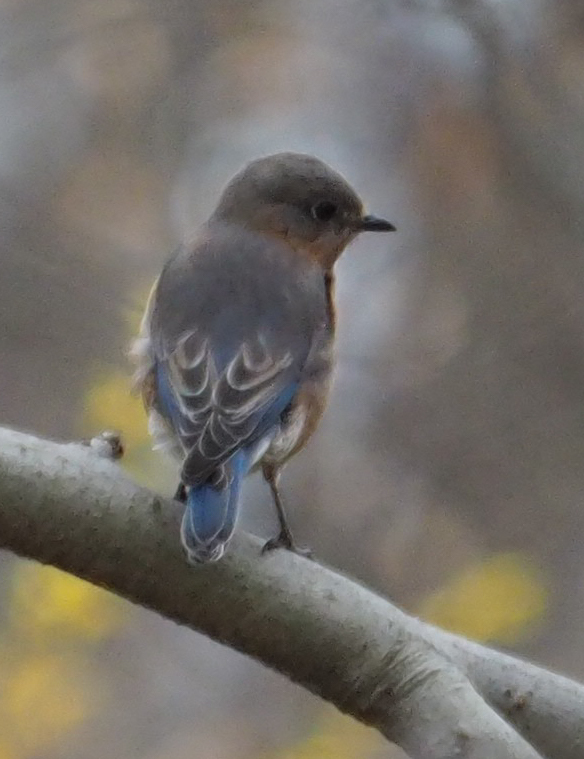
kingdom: Animalia
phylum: Chordata
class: Aves
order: Passeriformes
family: Turdidae
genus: Sialia
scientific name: Sialia sialis
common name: Eastern bluebird
